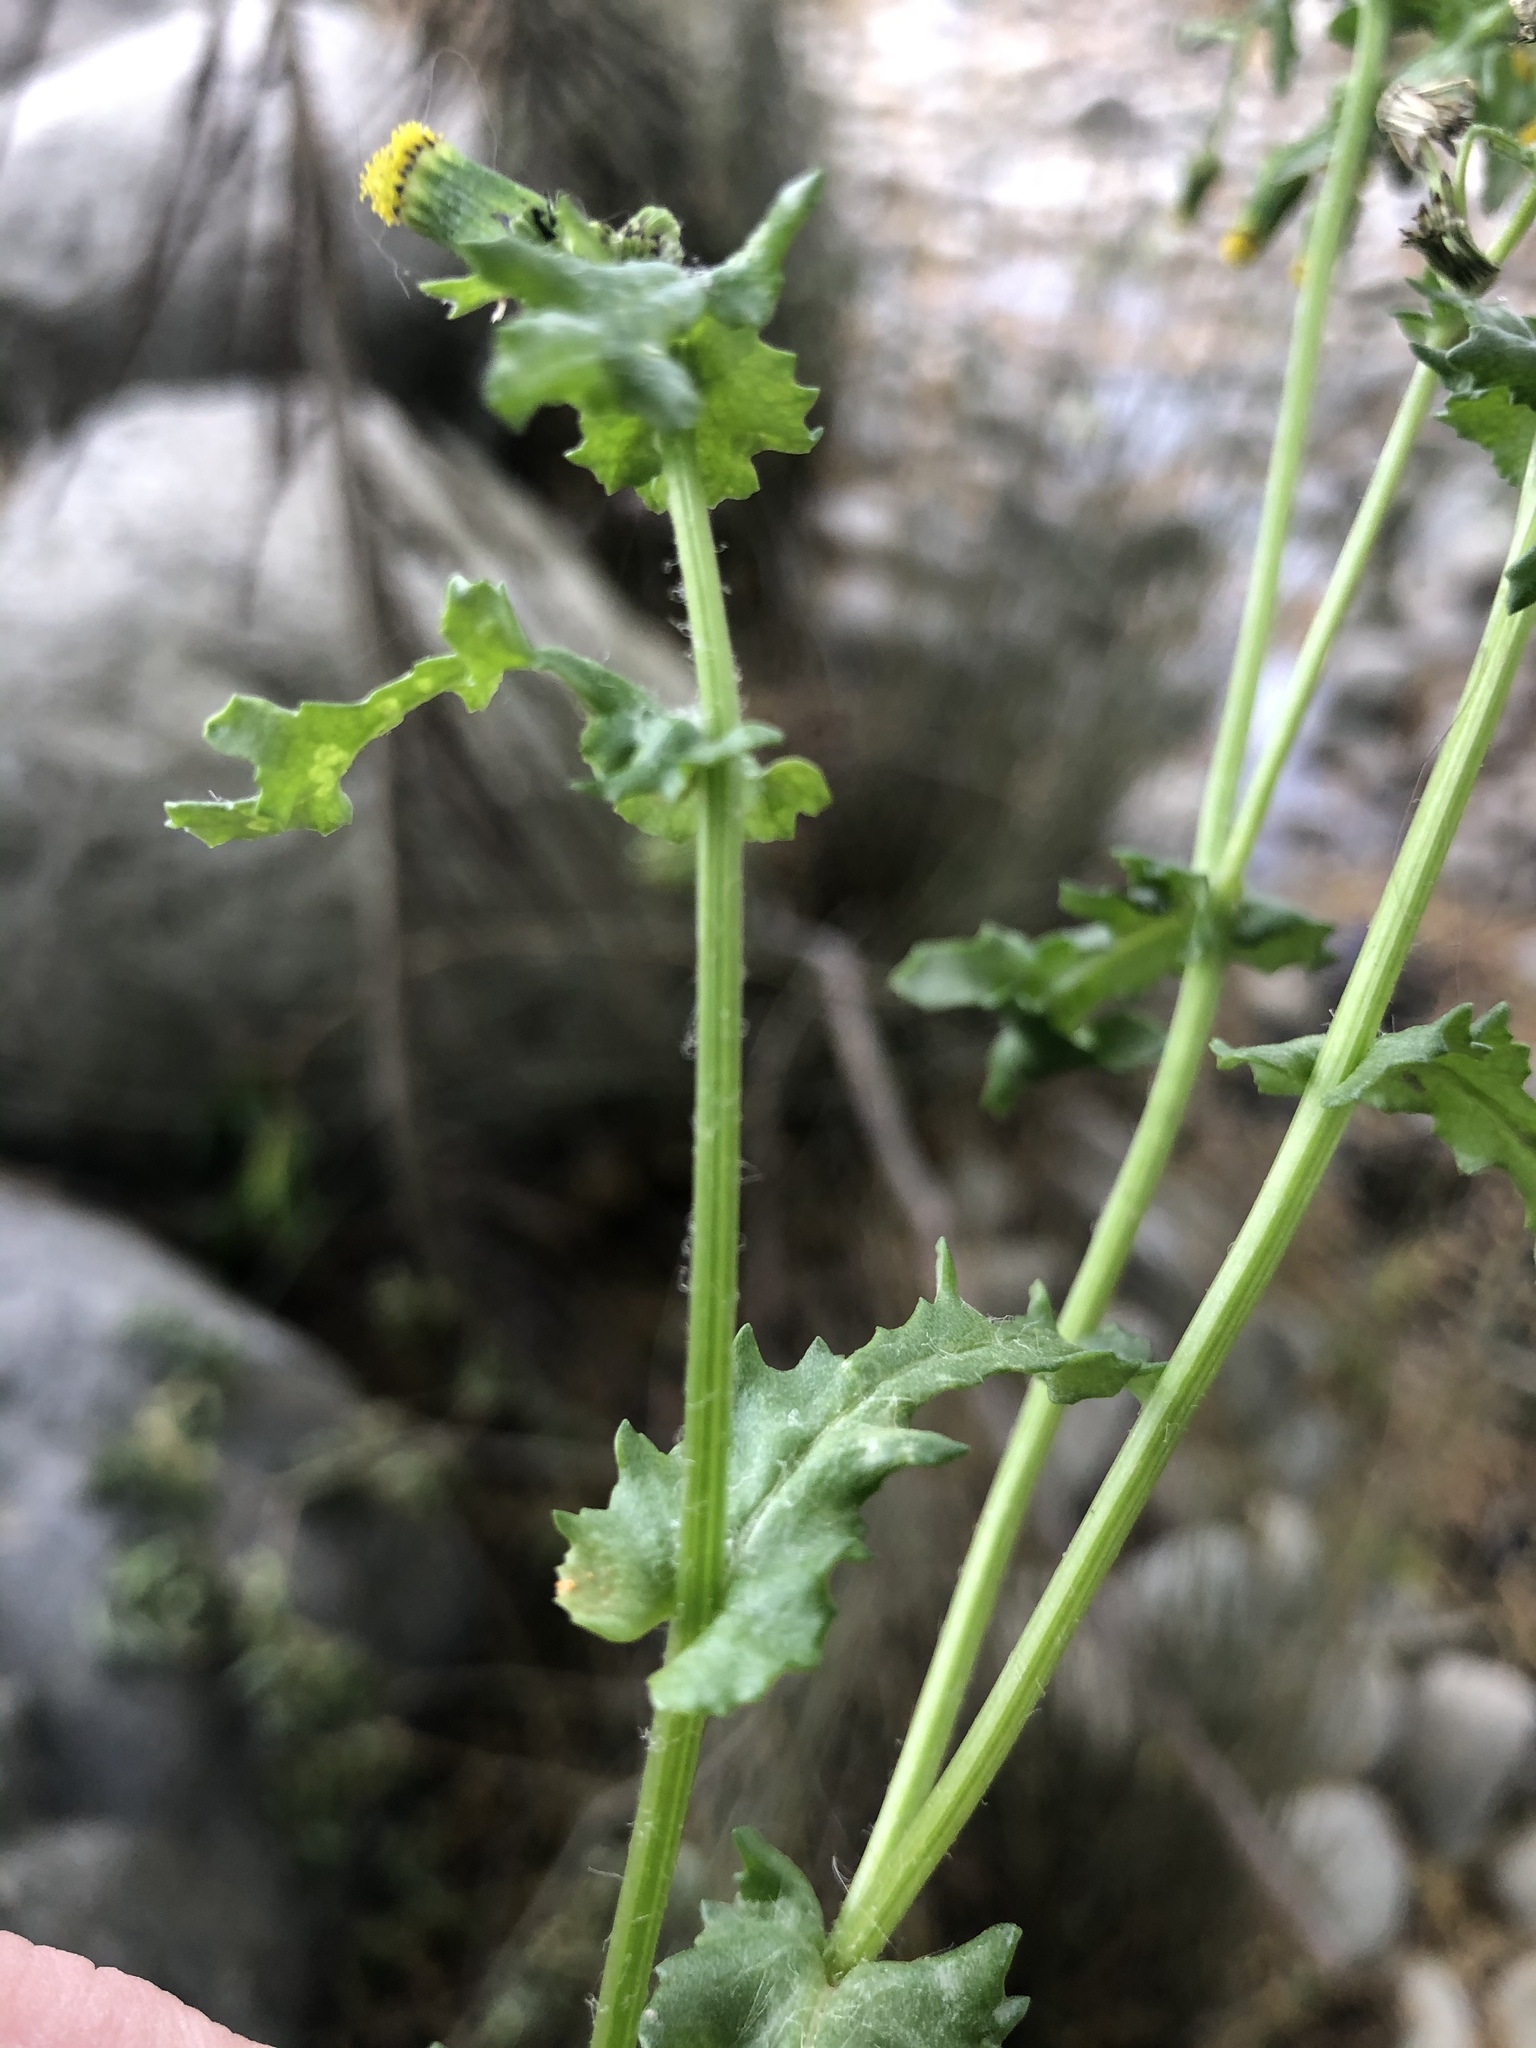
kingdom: Plantae
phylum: Tracheophyta
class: Magnoliopsida
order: Asterales
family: Asteraceae
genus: Senecio
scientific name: Senecio vulgaris
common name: Old-man-in-the-spring
